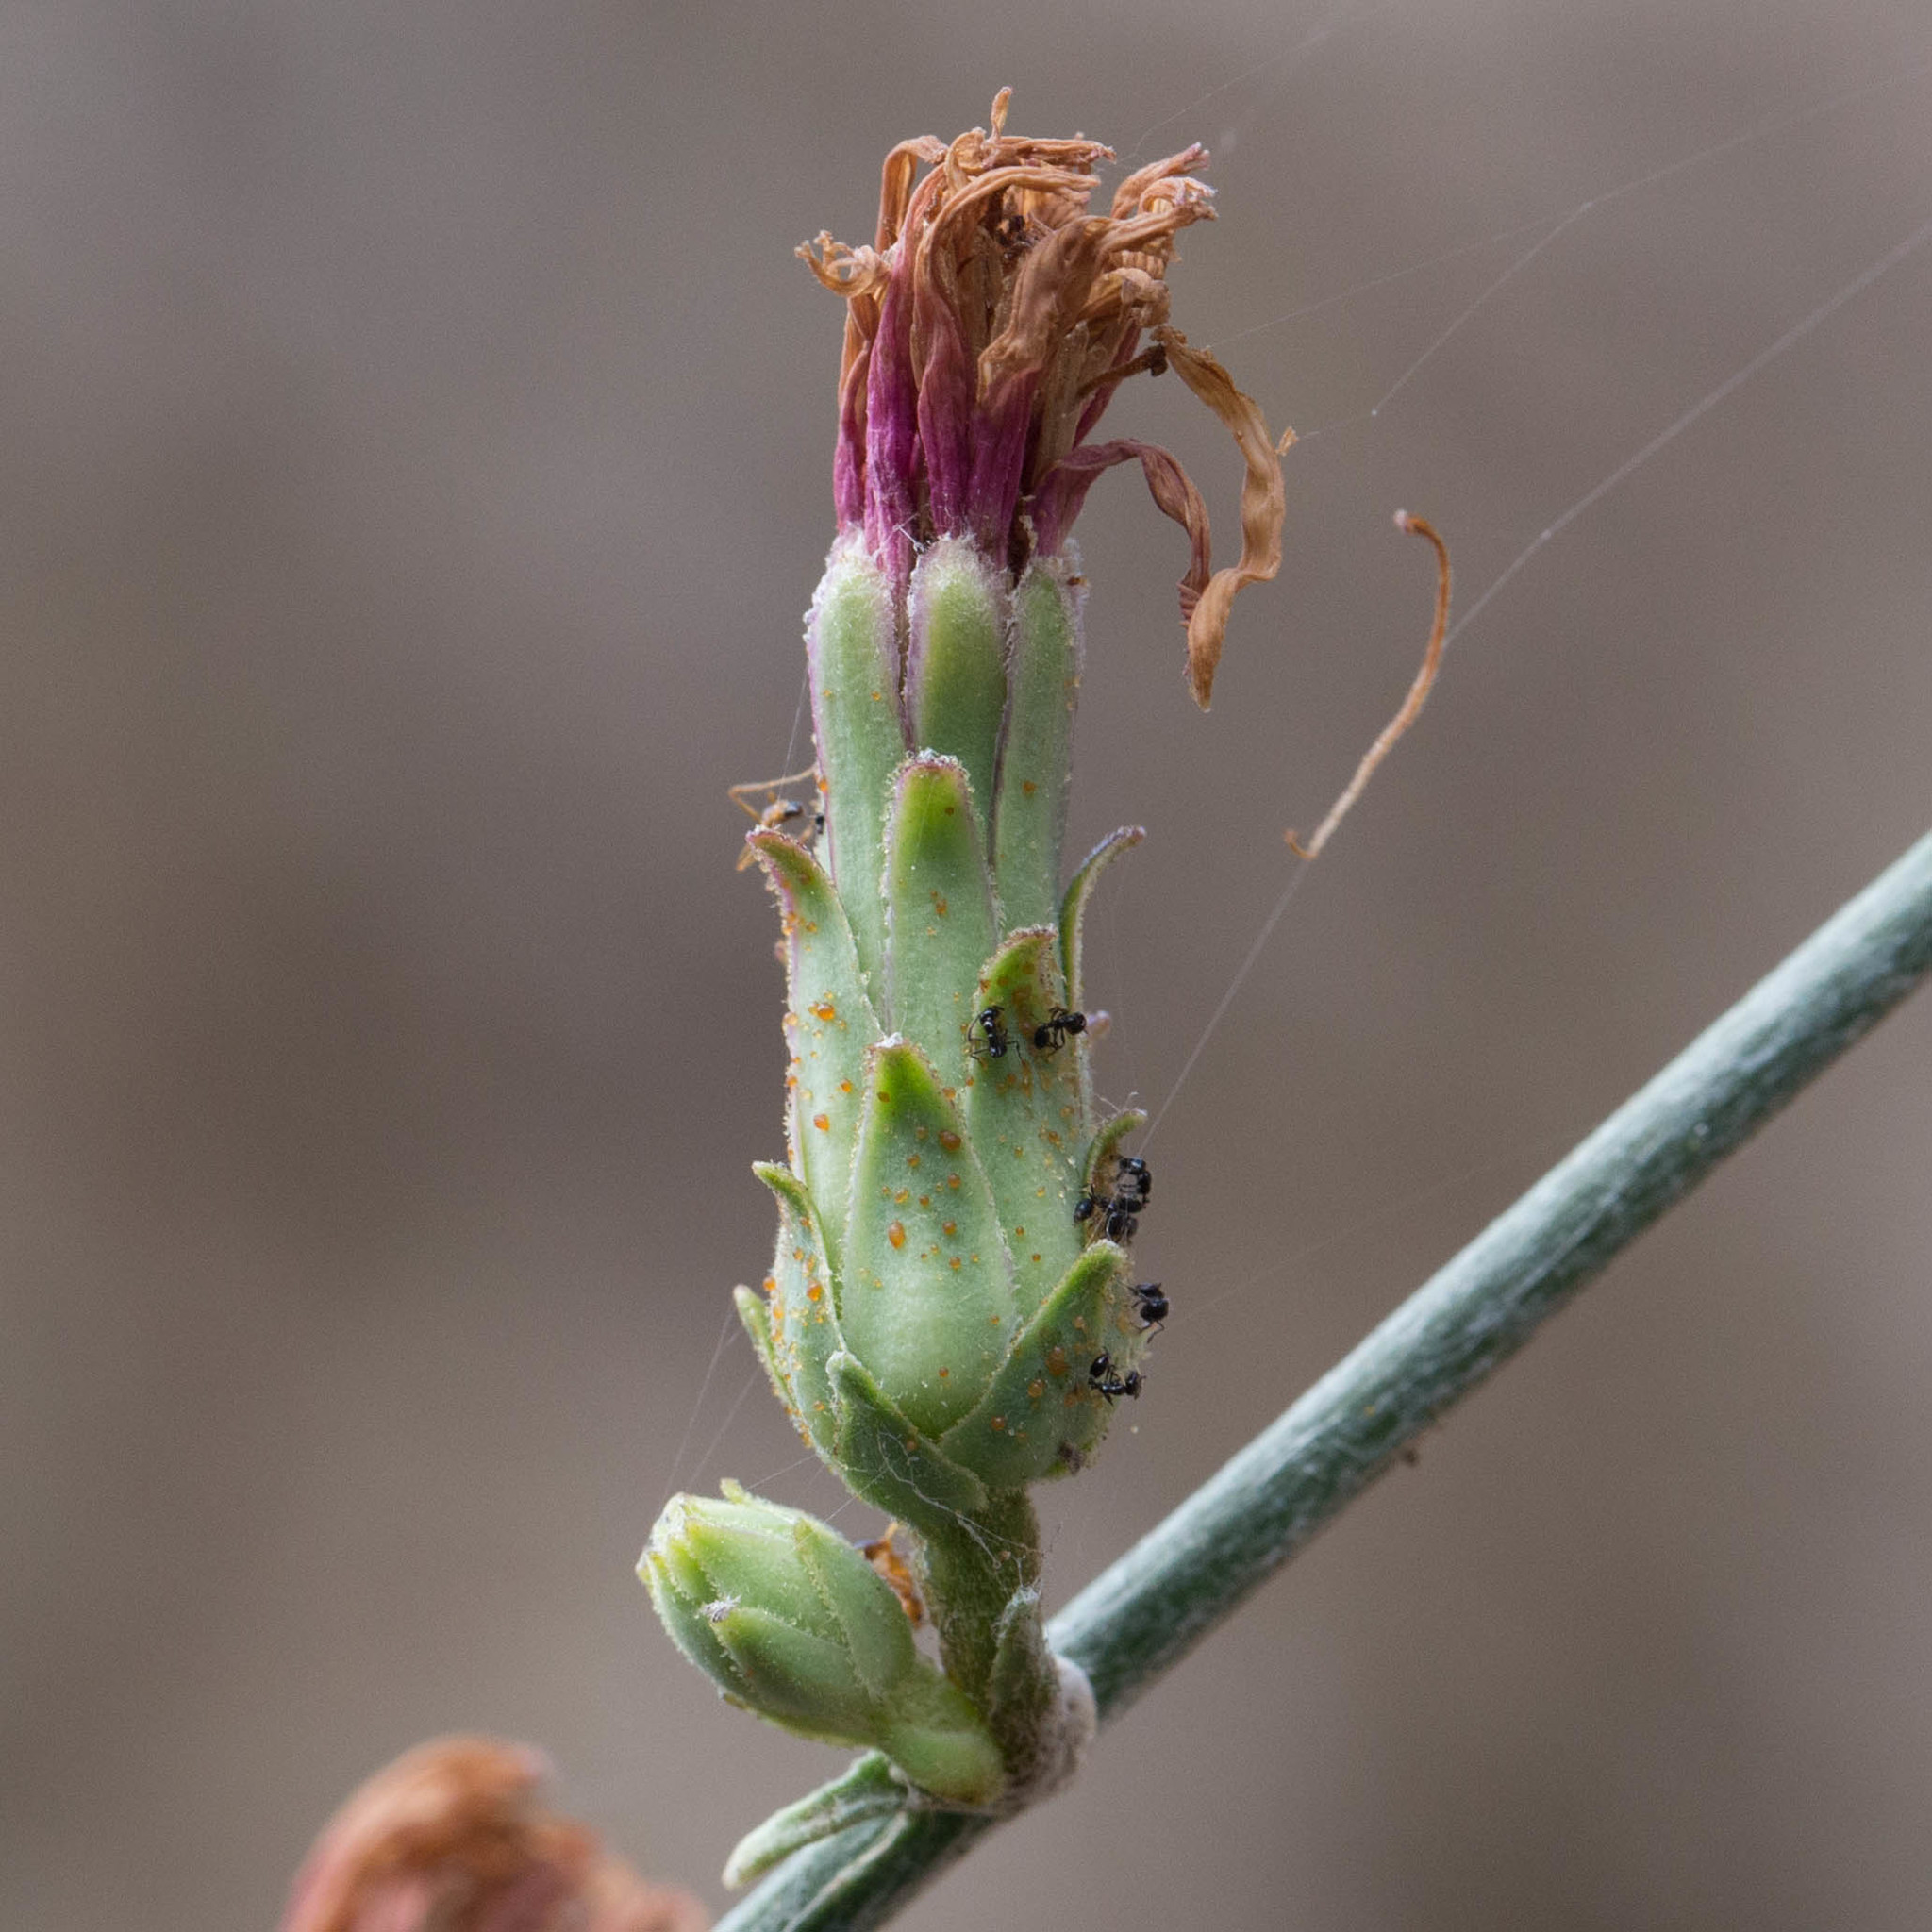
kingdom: Plantae
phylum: Tracheophyta
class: Magnoliopsida
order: Asterales
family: Asteraceae
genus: Stephanomeria
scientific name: Stephanomeria cichoriacea
